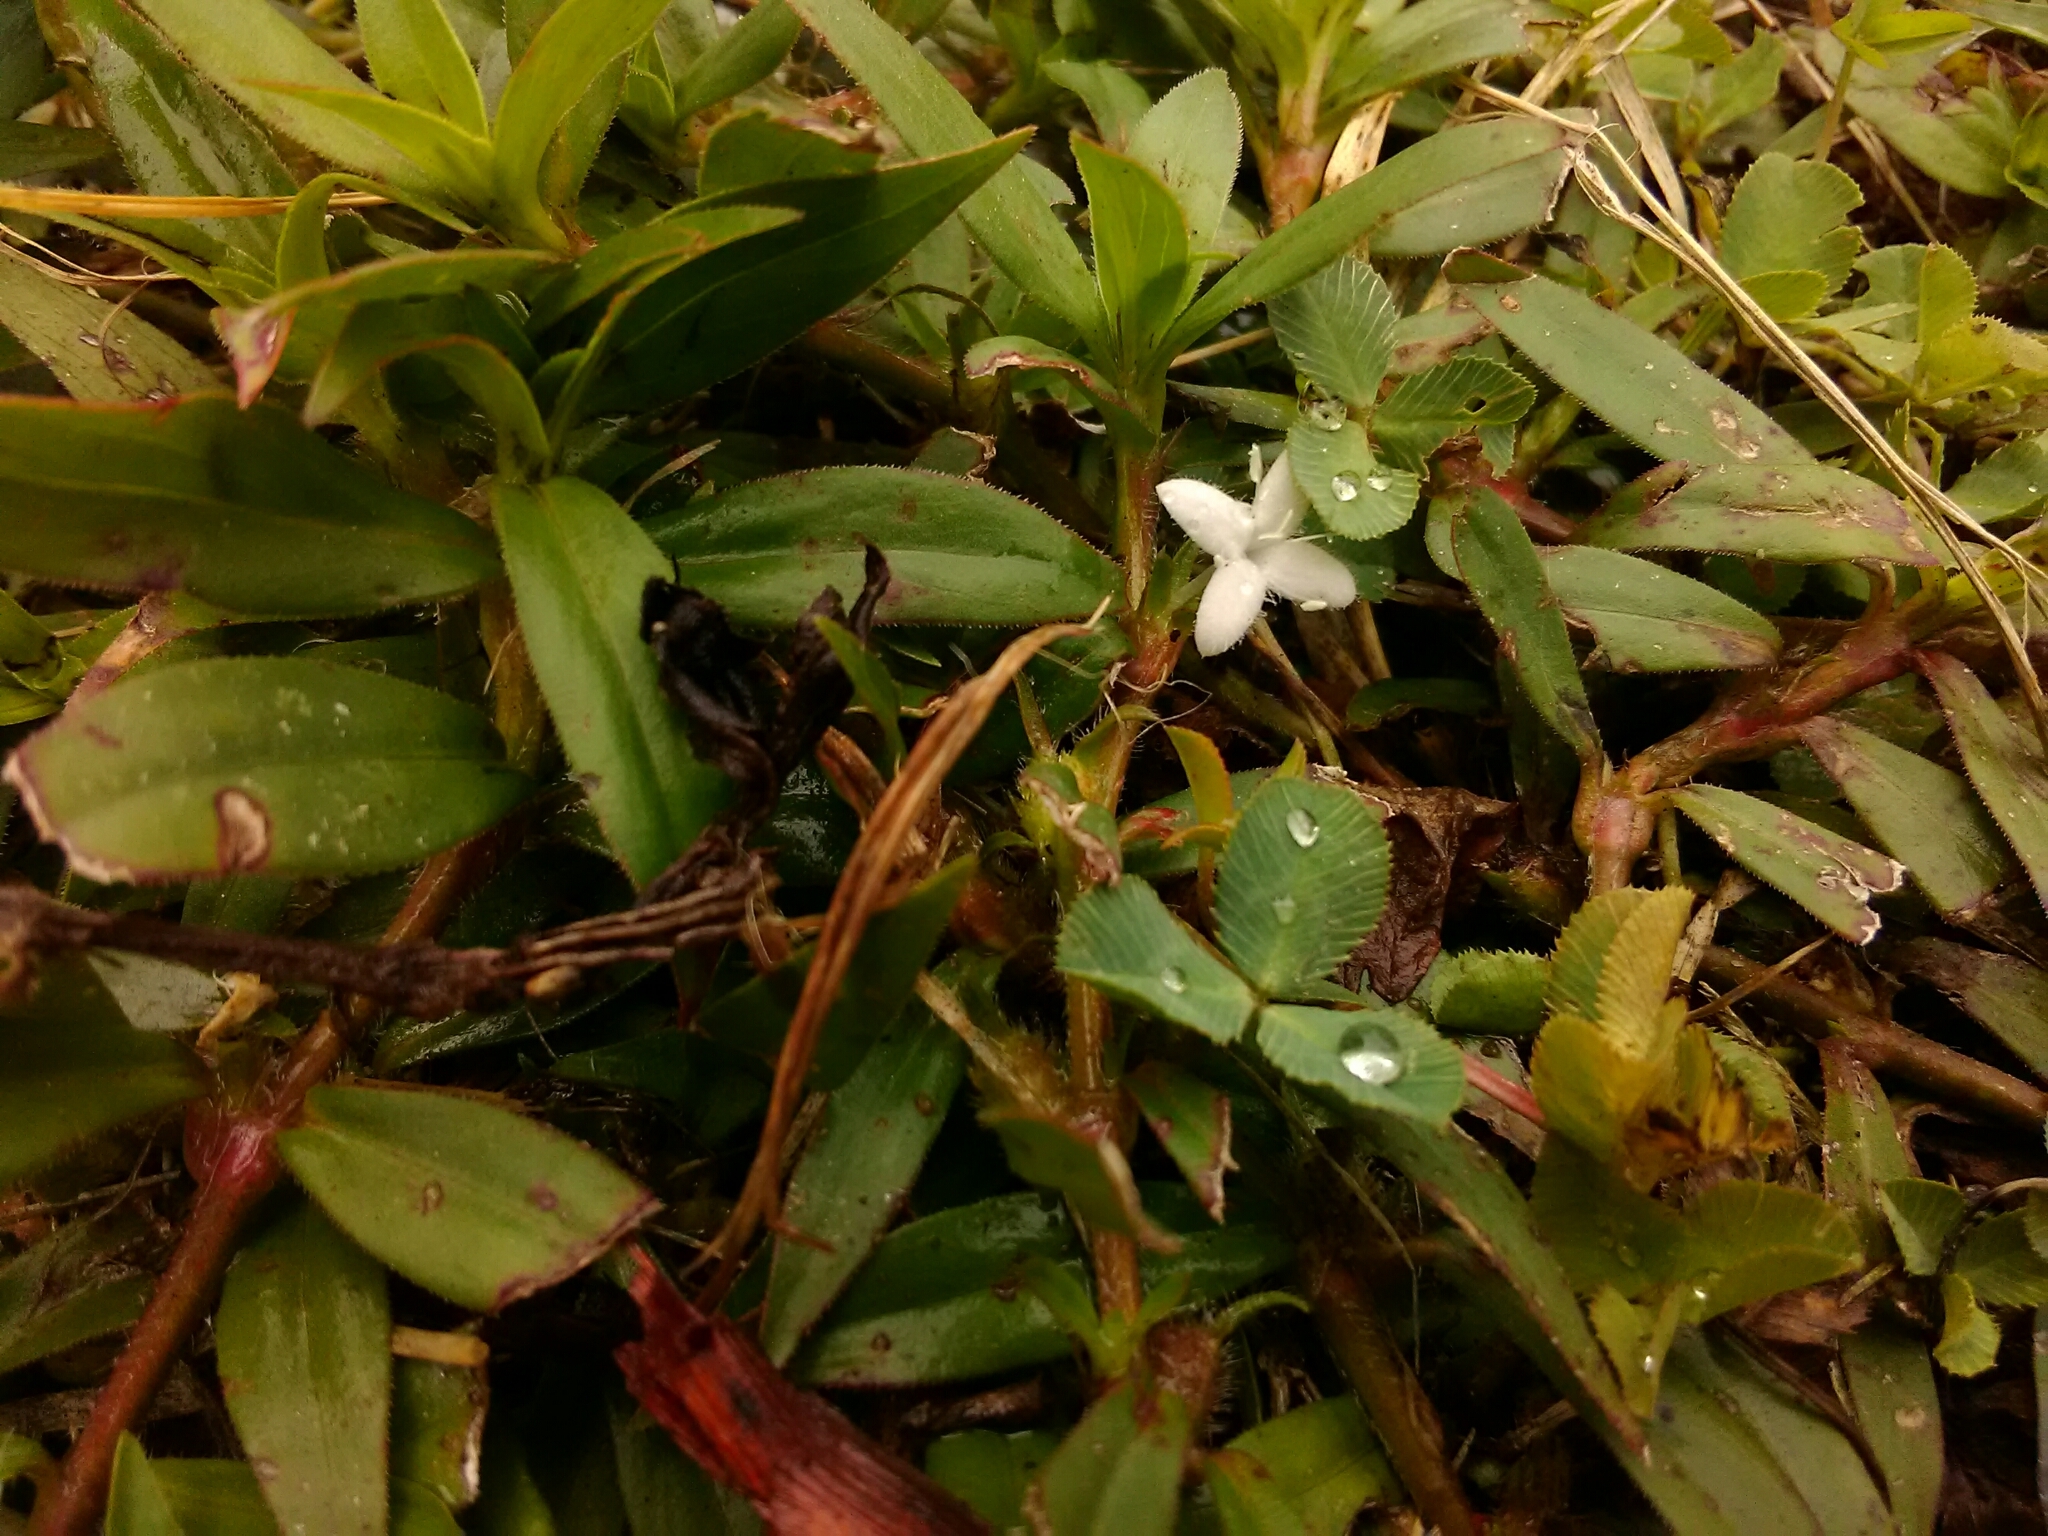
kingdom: Plantae
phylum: Tracheophyta
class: Magnoliopsida
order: Gentianales
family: Rubiaceae
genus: Diodia
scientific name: Diodia virginiana
